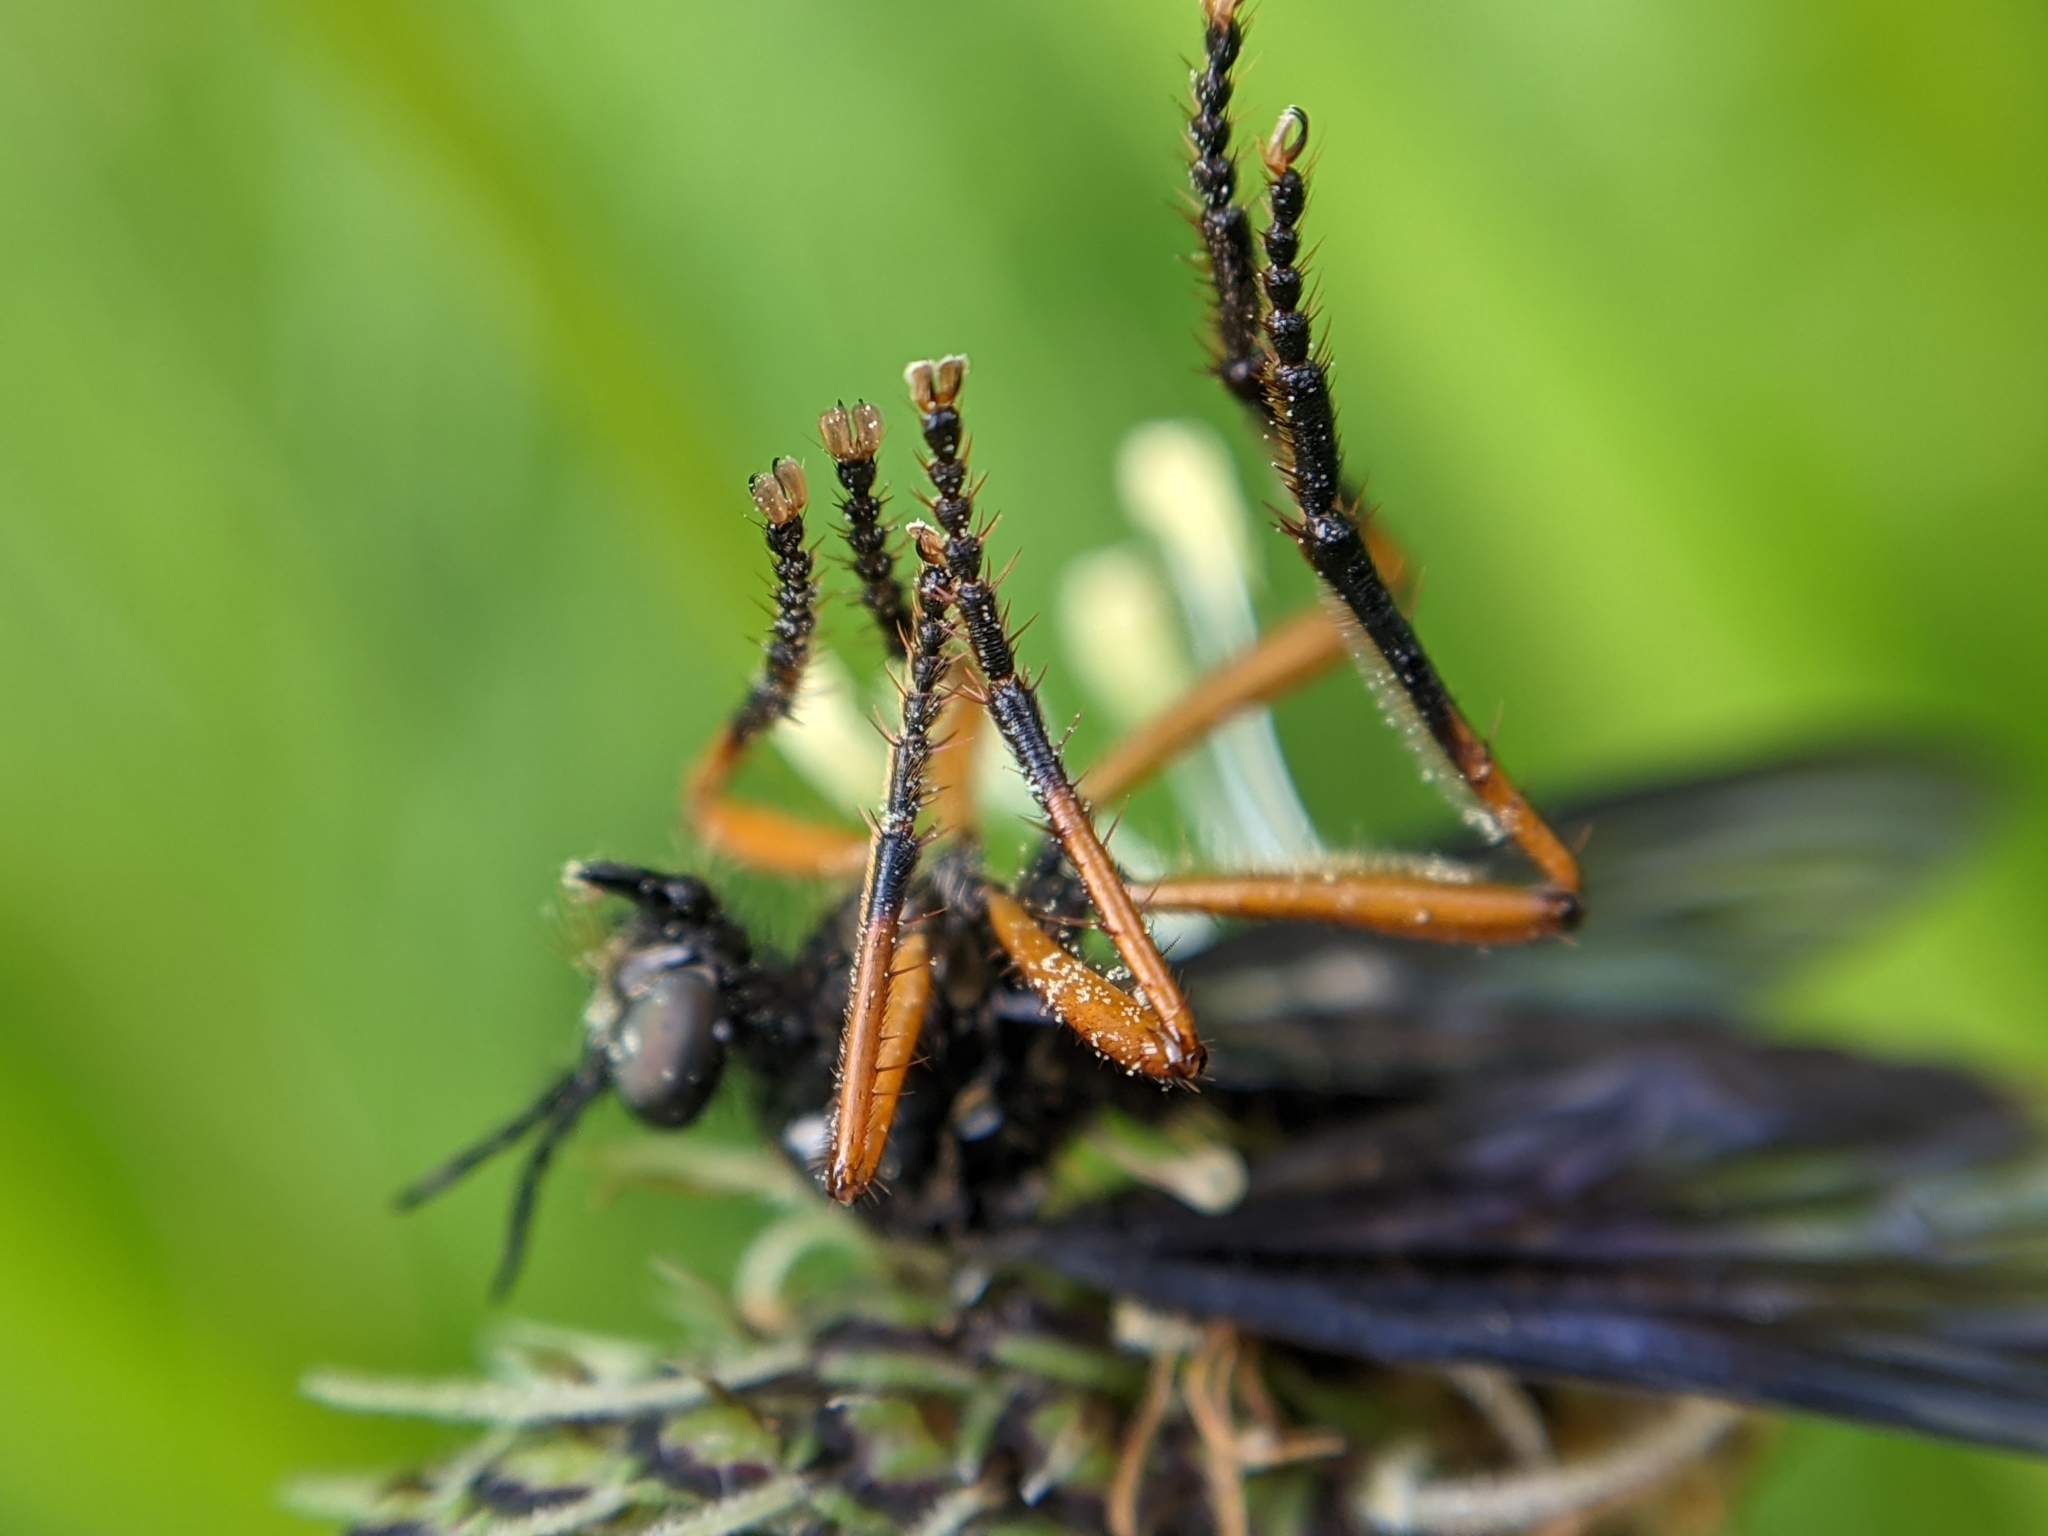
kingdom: Animalia
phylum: Arthropoda
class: Insecta
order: Diptera
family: Asilidae
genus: Dioctria
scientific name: Dioctria oelandica
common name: Orange-legged robberfly
